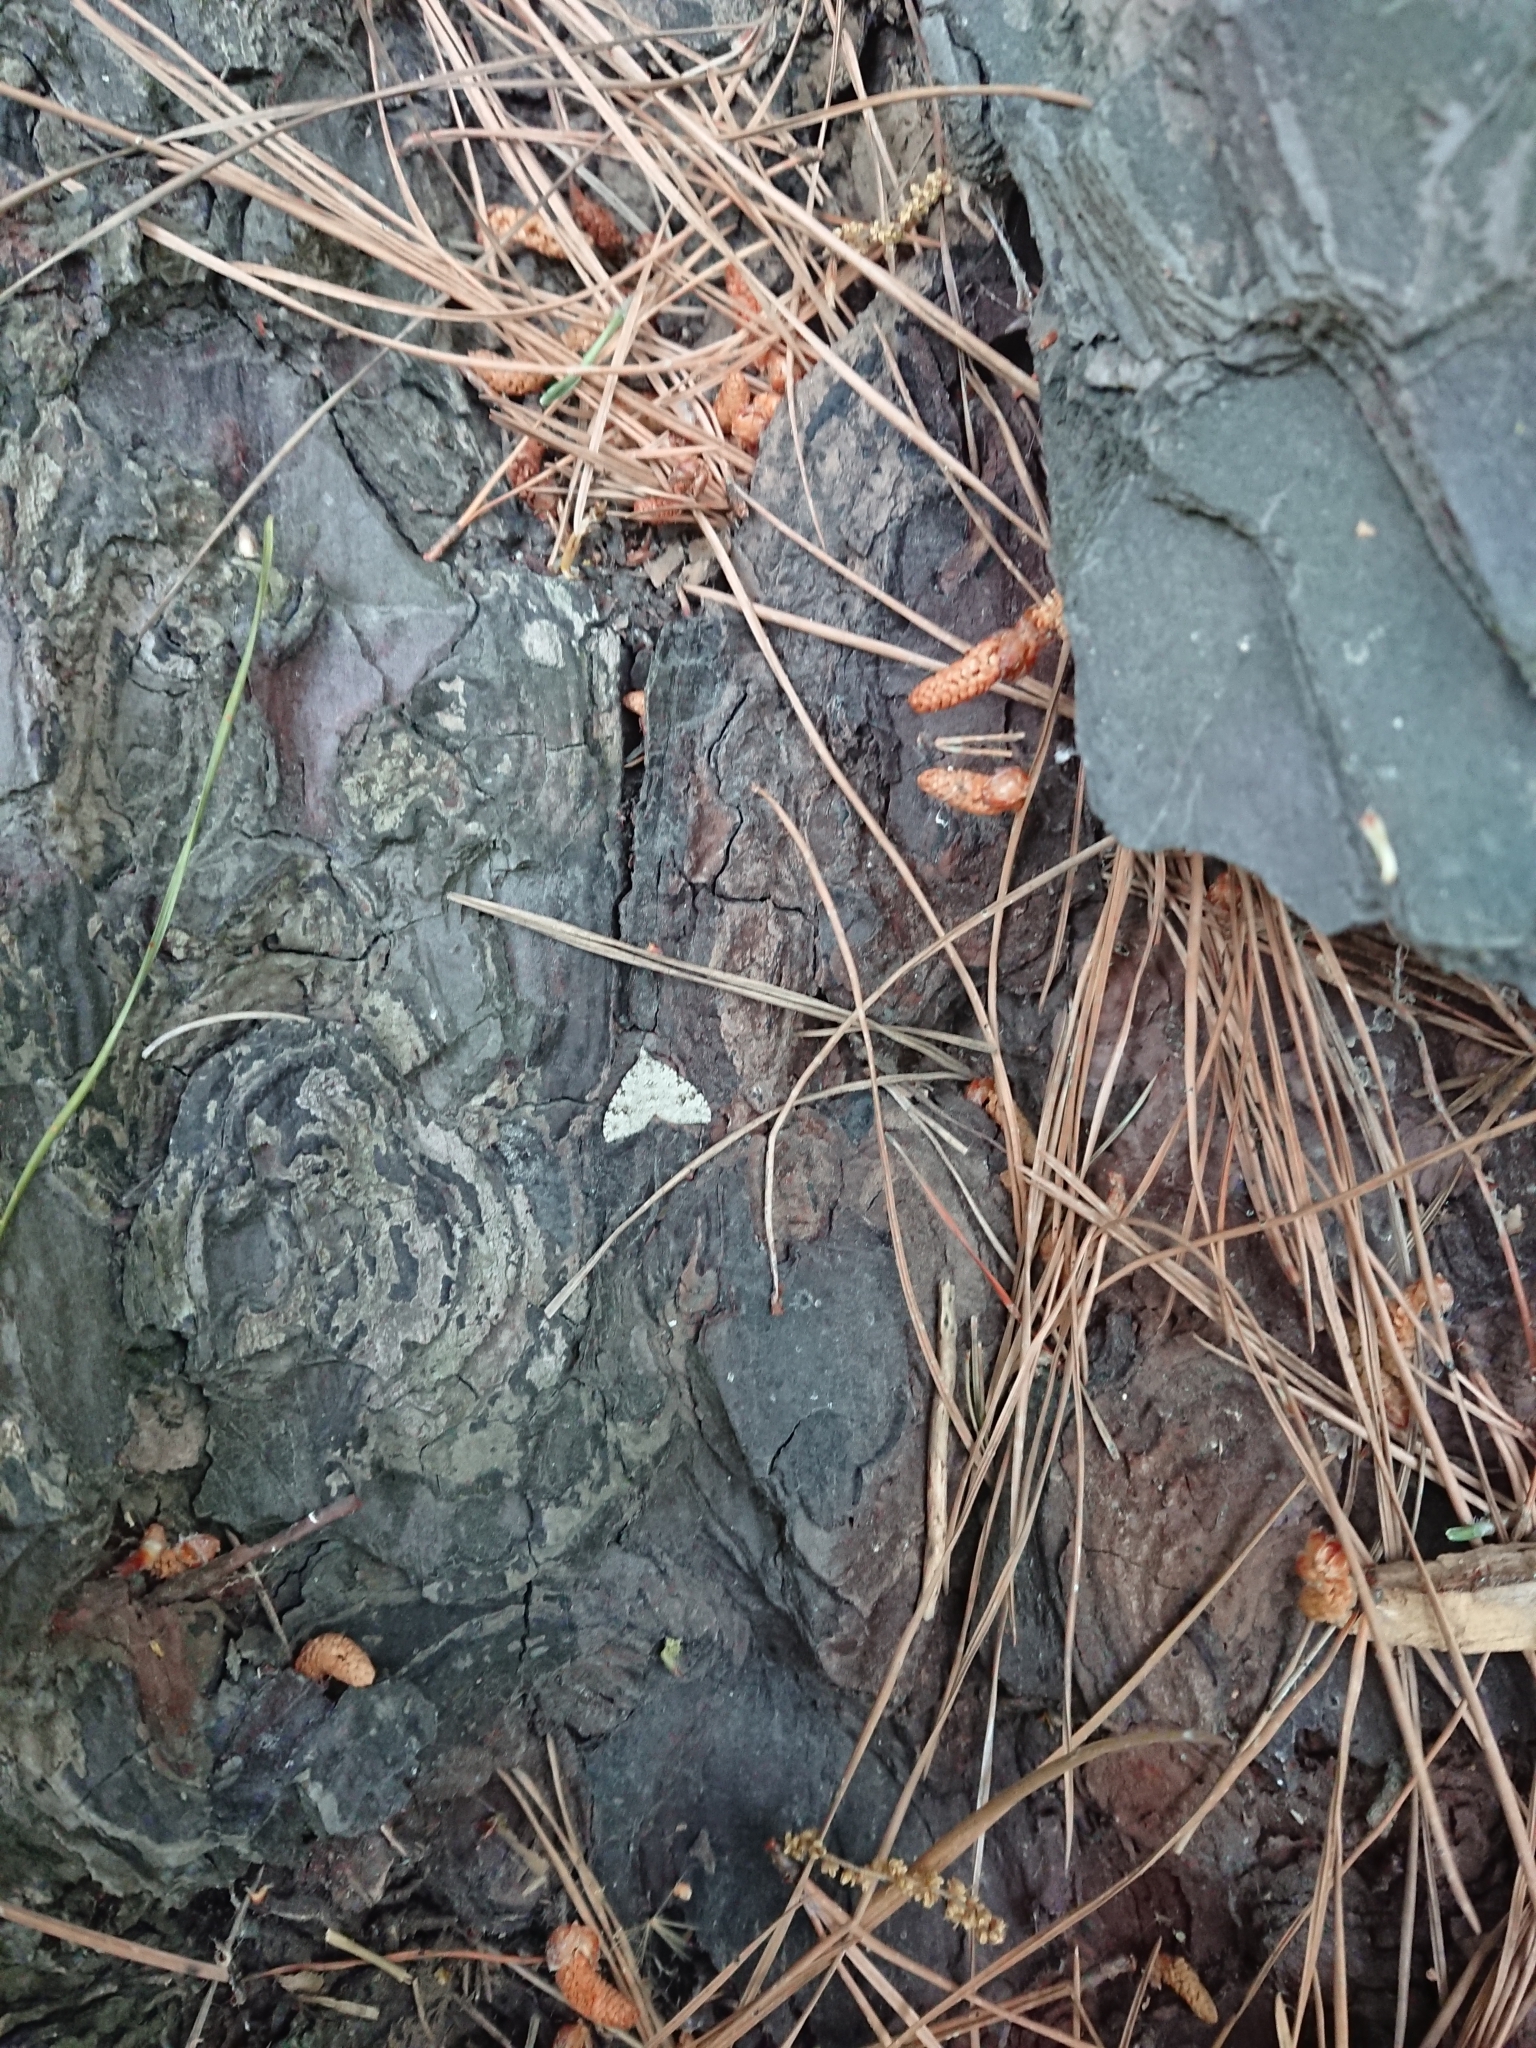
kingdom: Animalia
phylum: Arthropoda
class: Insecta
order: Lepidoptera
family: Geometridae
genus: Helastia
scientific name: Helastia cinerearia
